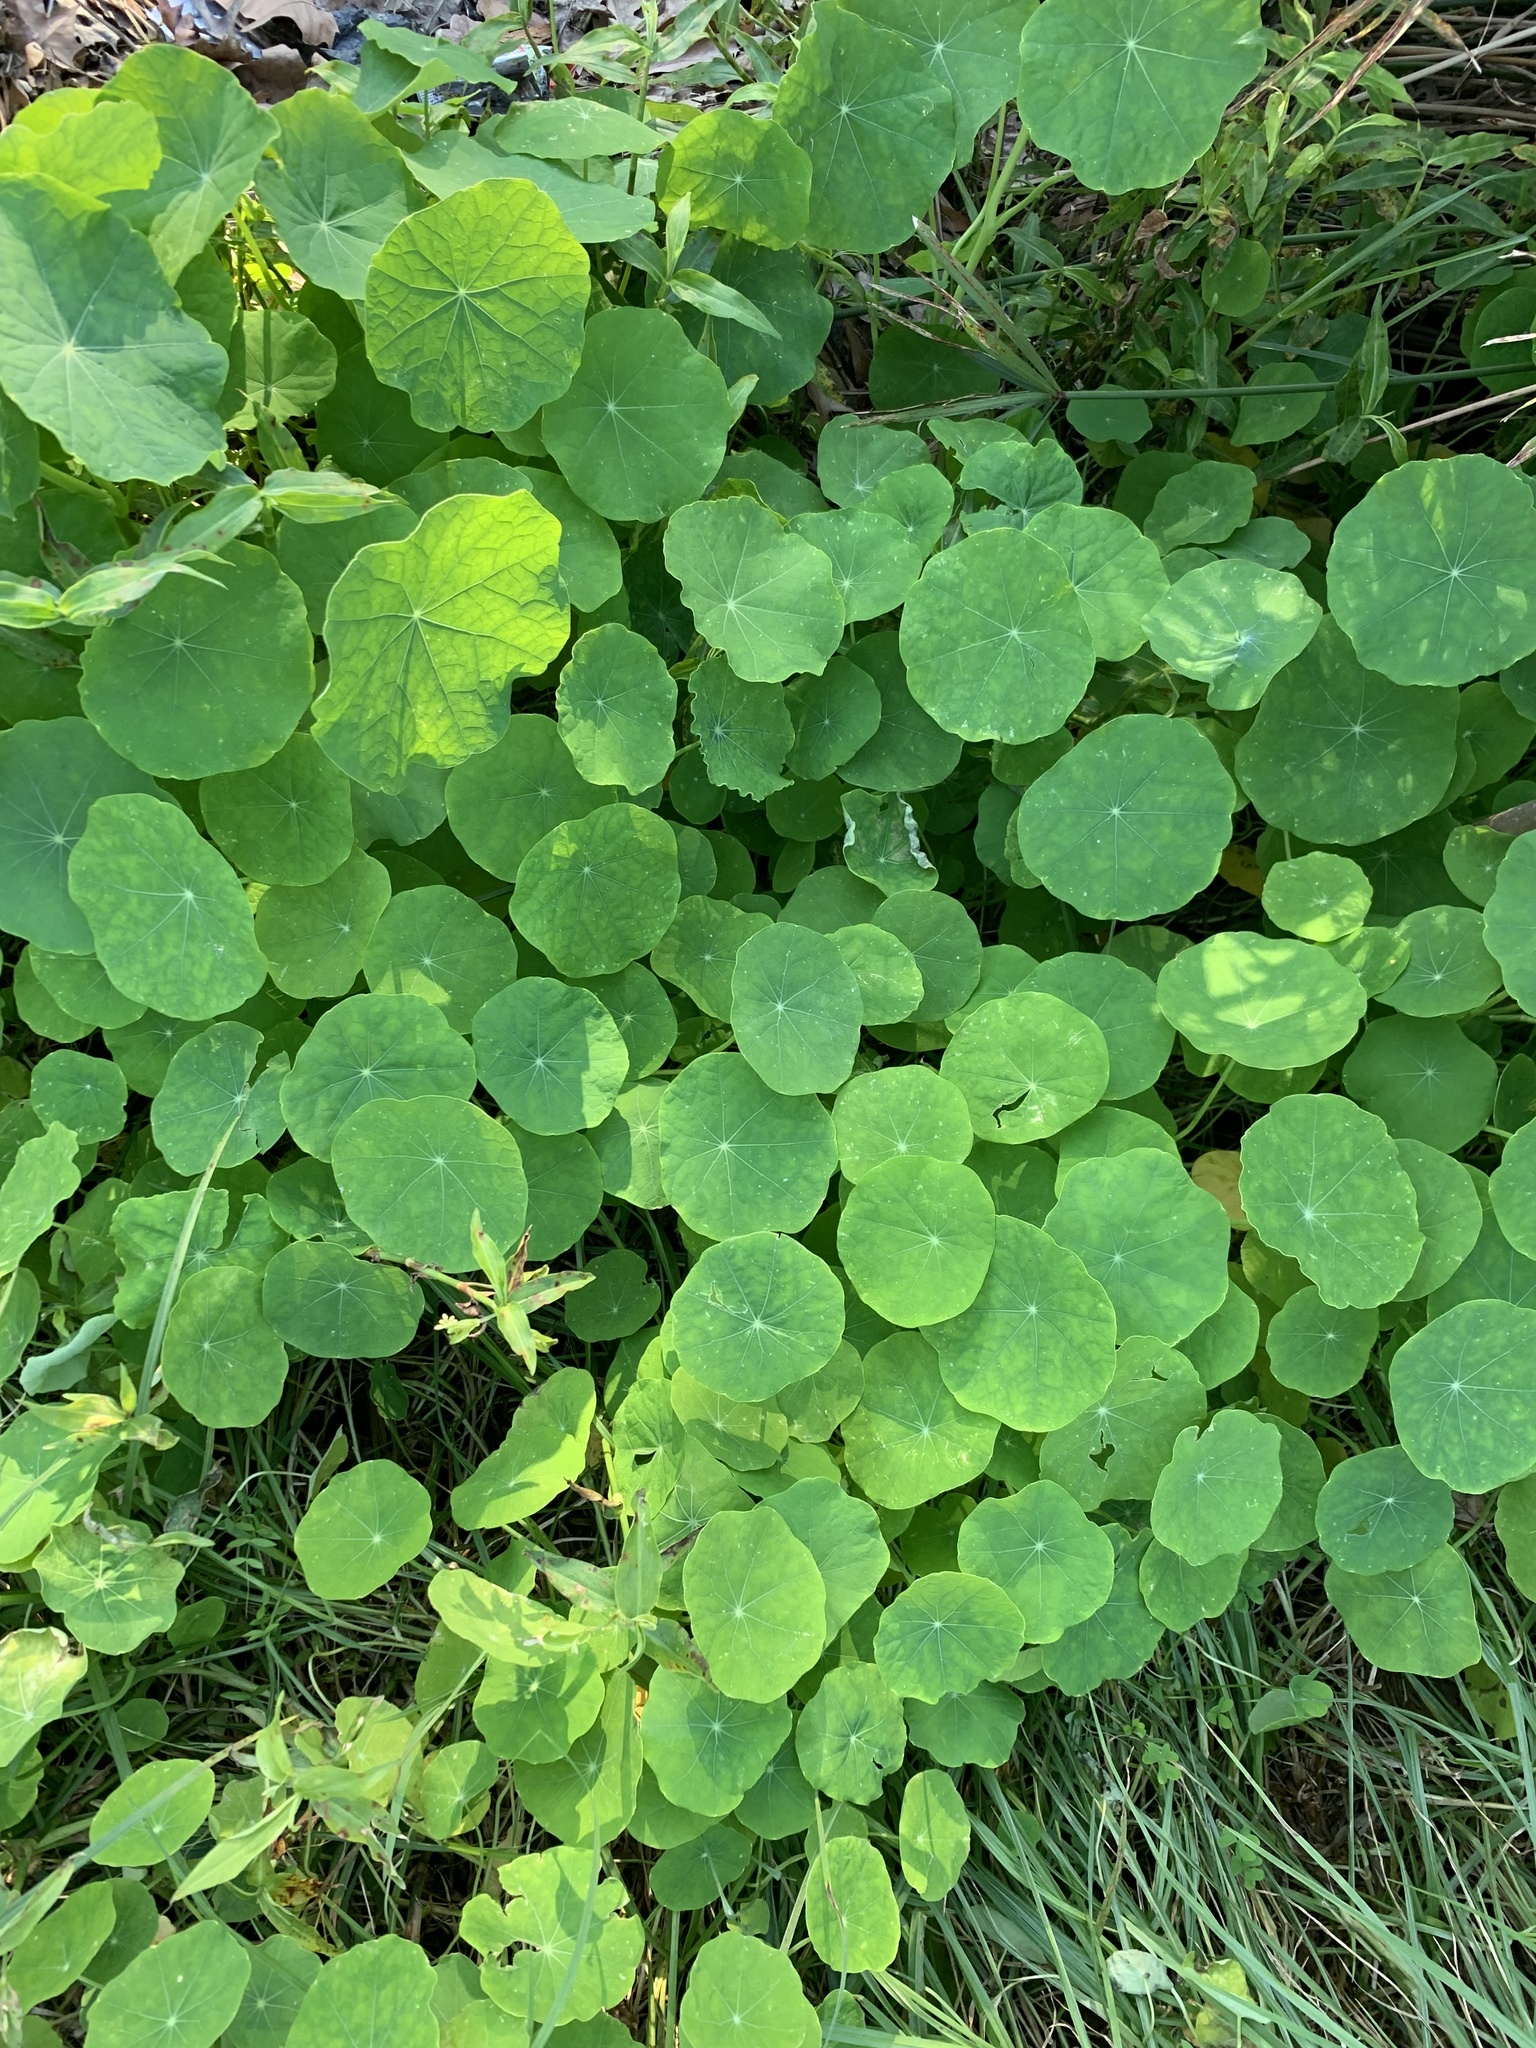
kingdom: Plantae
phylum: Tracheophyta
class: Magnoliopsida
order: Brassicales
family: Tropaeolaceae
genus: Tropaeolum
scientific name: Tropaeolum majus
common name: Nasturtium
